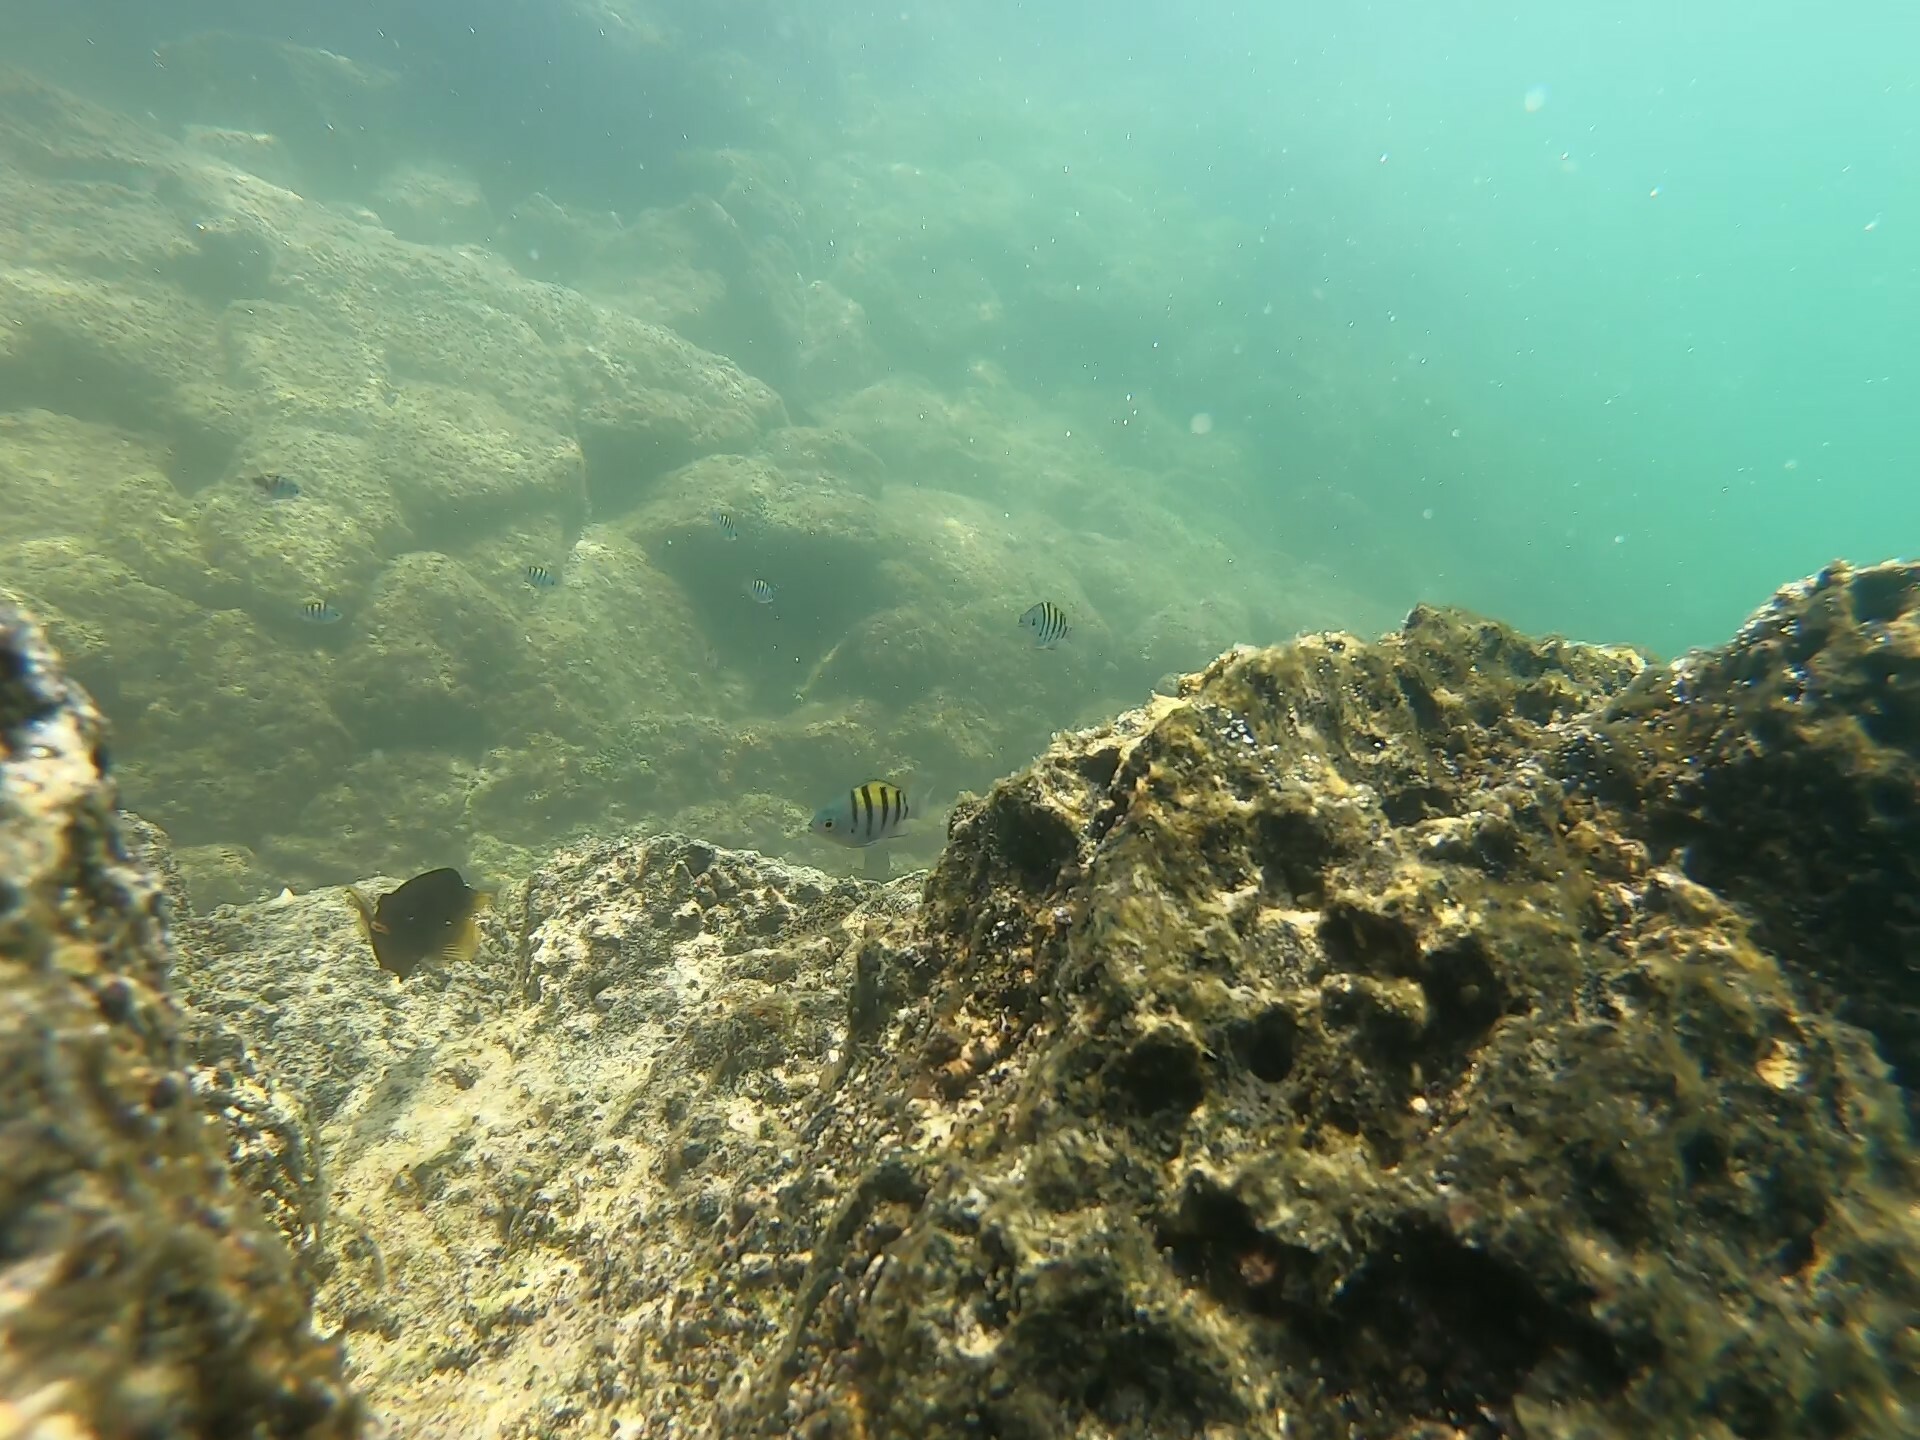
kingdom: Animalia
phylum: Chordata
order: Perciformes
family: Pomacentridae
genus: Abudefduf
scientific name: Abudefduf troschelii
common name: Panamic sergeant major
